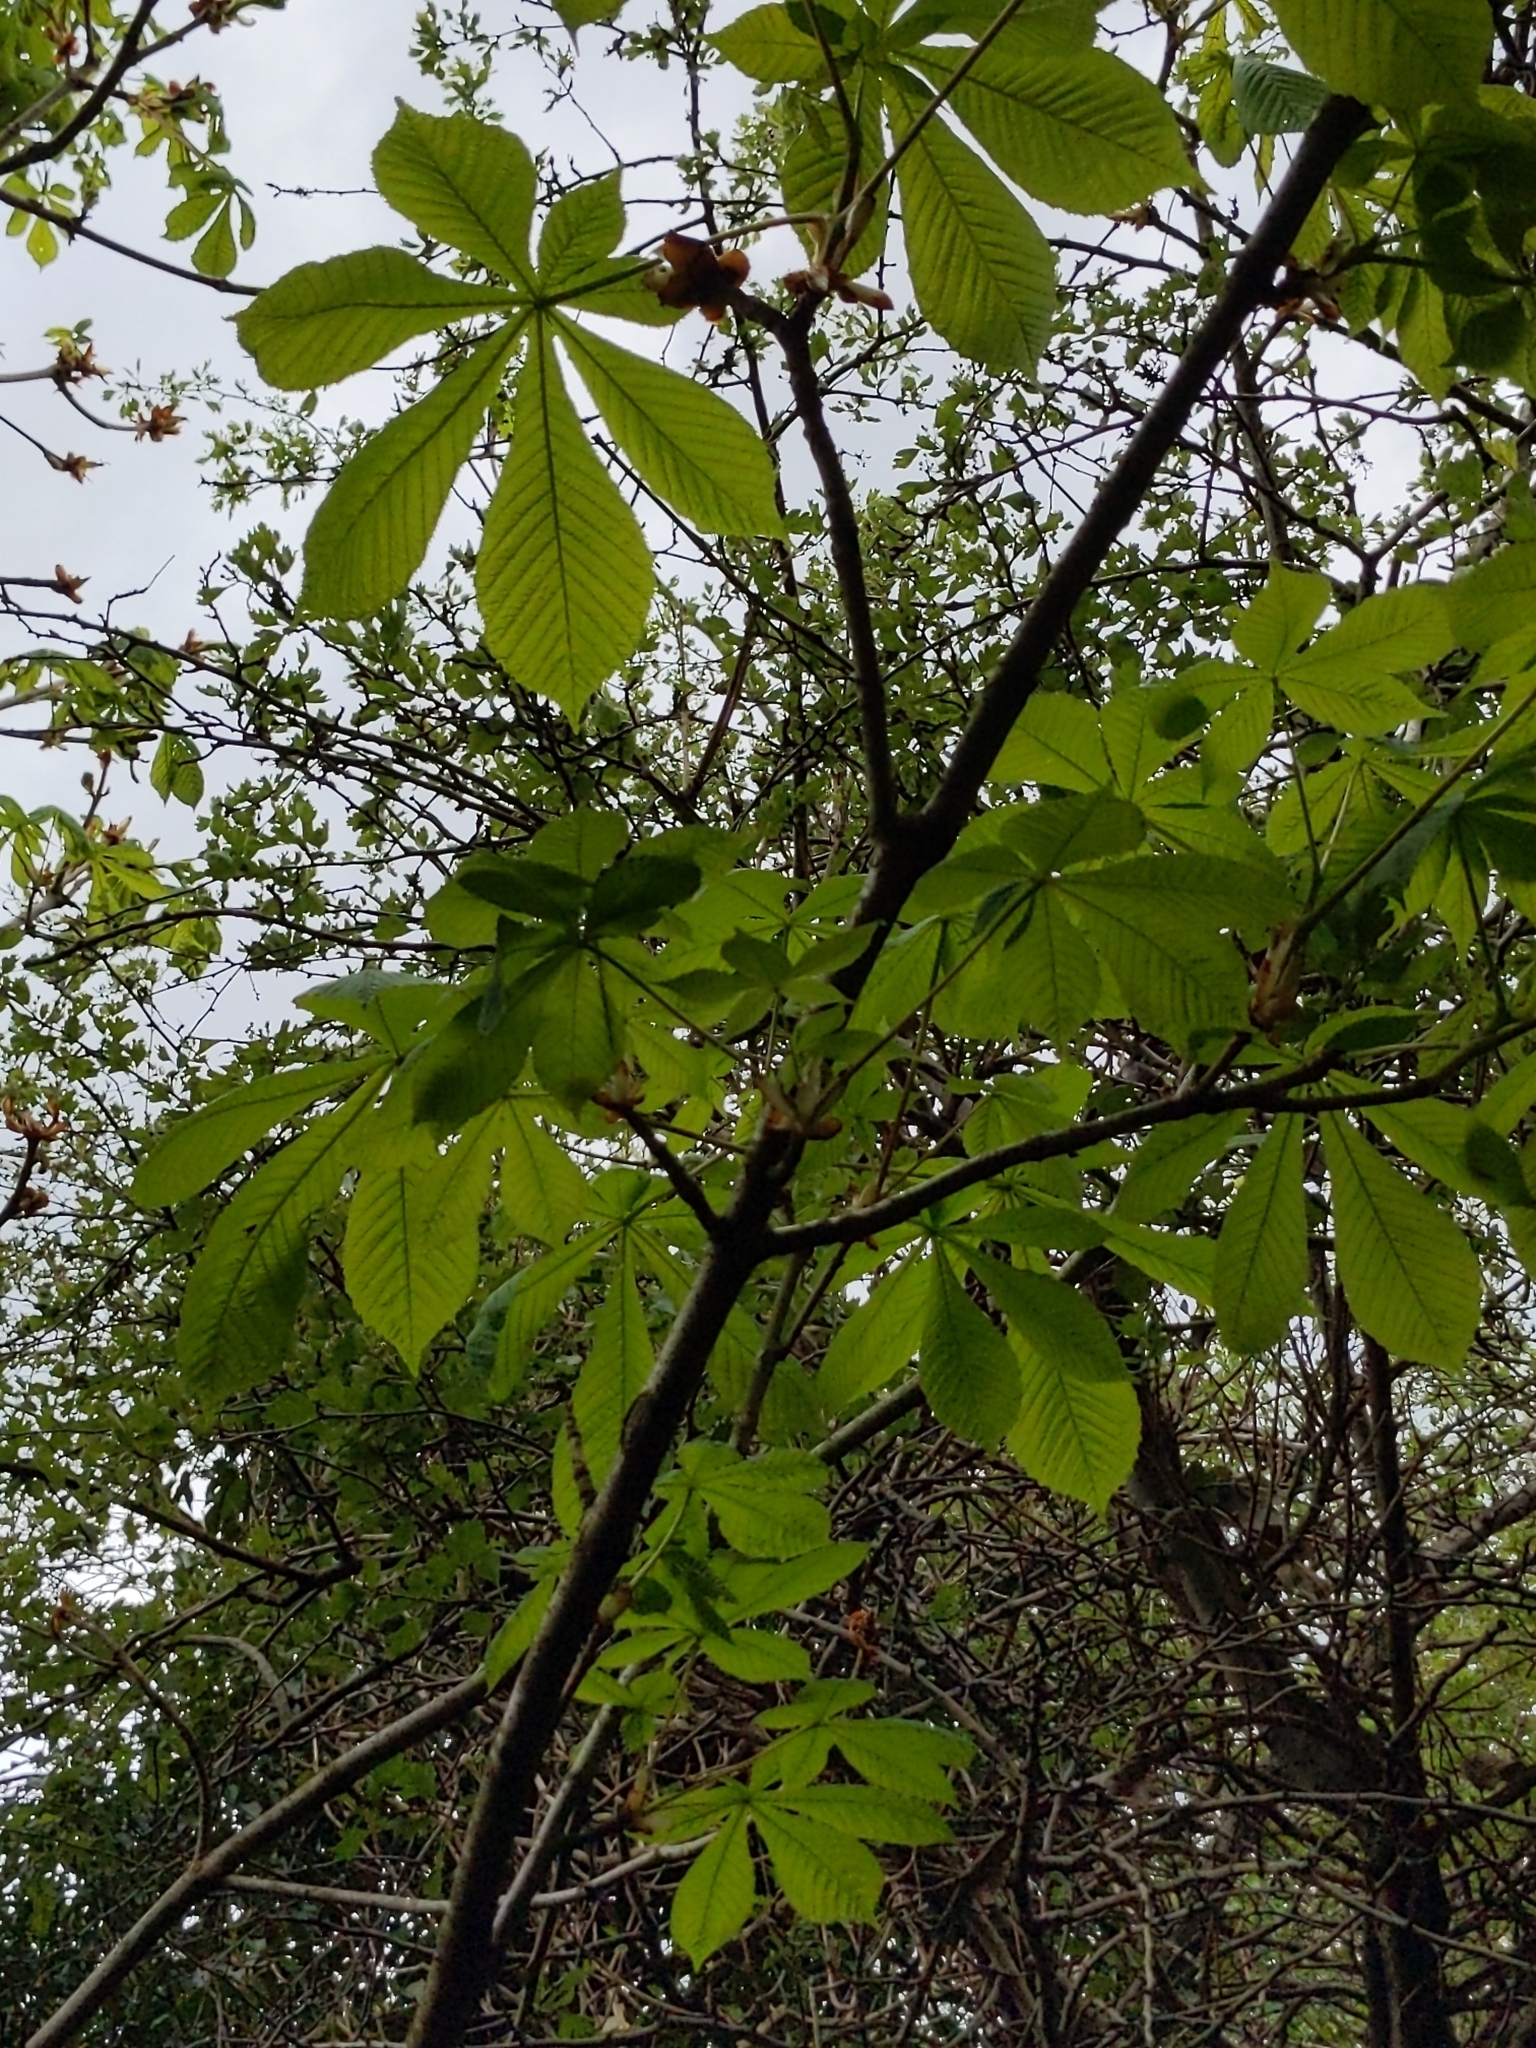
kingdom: Plantae
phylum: Tracheophyta
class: Magnoliopsida
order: Sapindales
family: Sapindaceae
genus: Aesculus
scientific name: Aesculus hippocastanum
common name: Horse-chestnut
